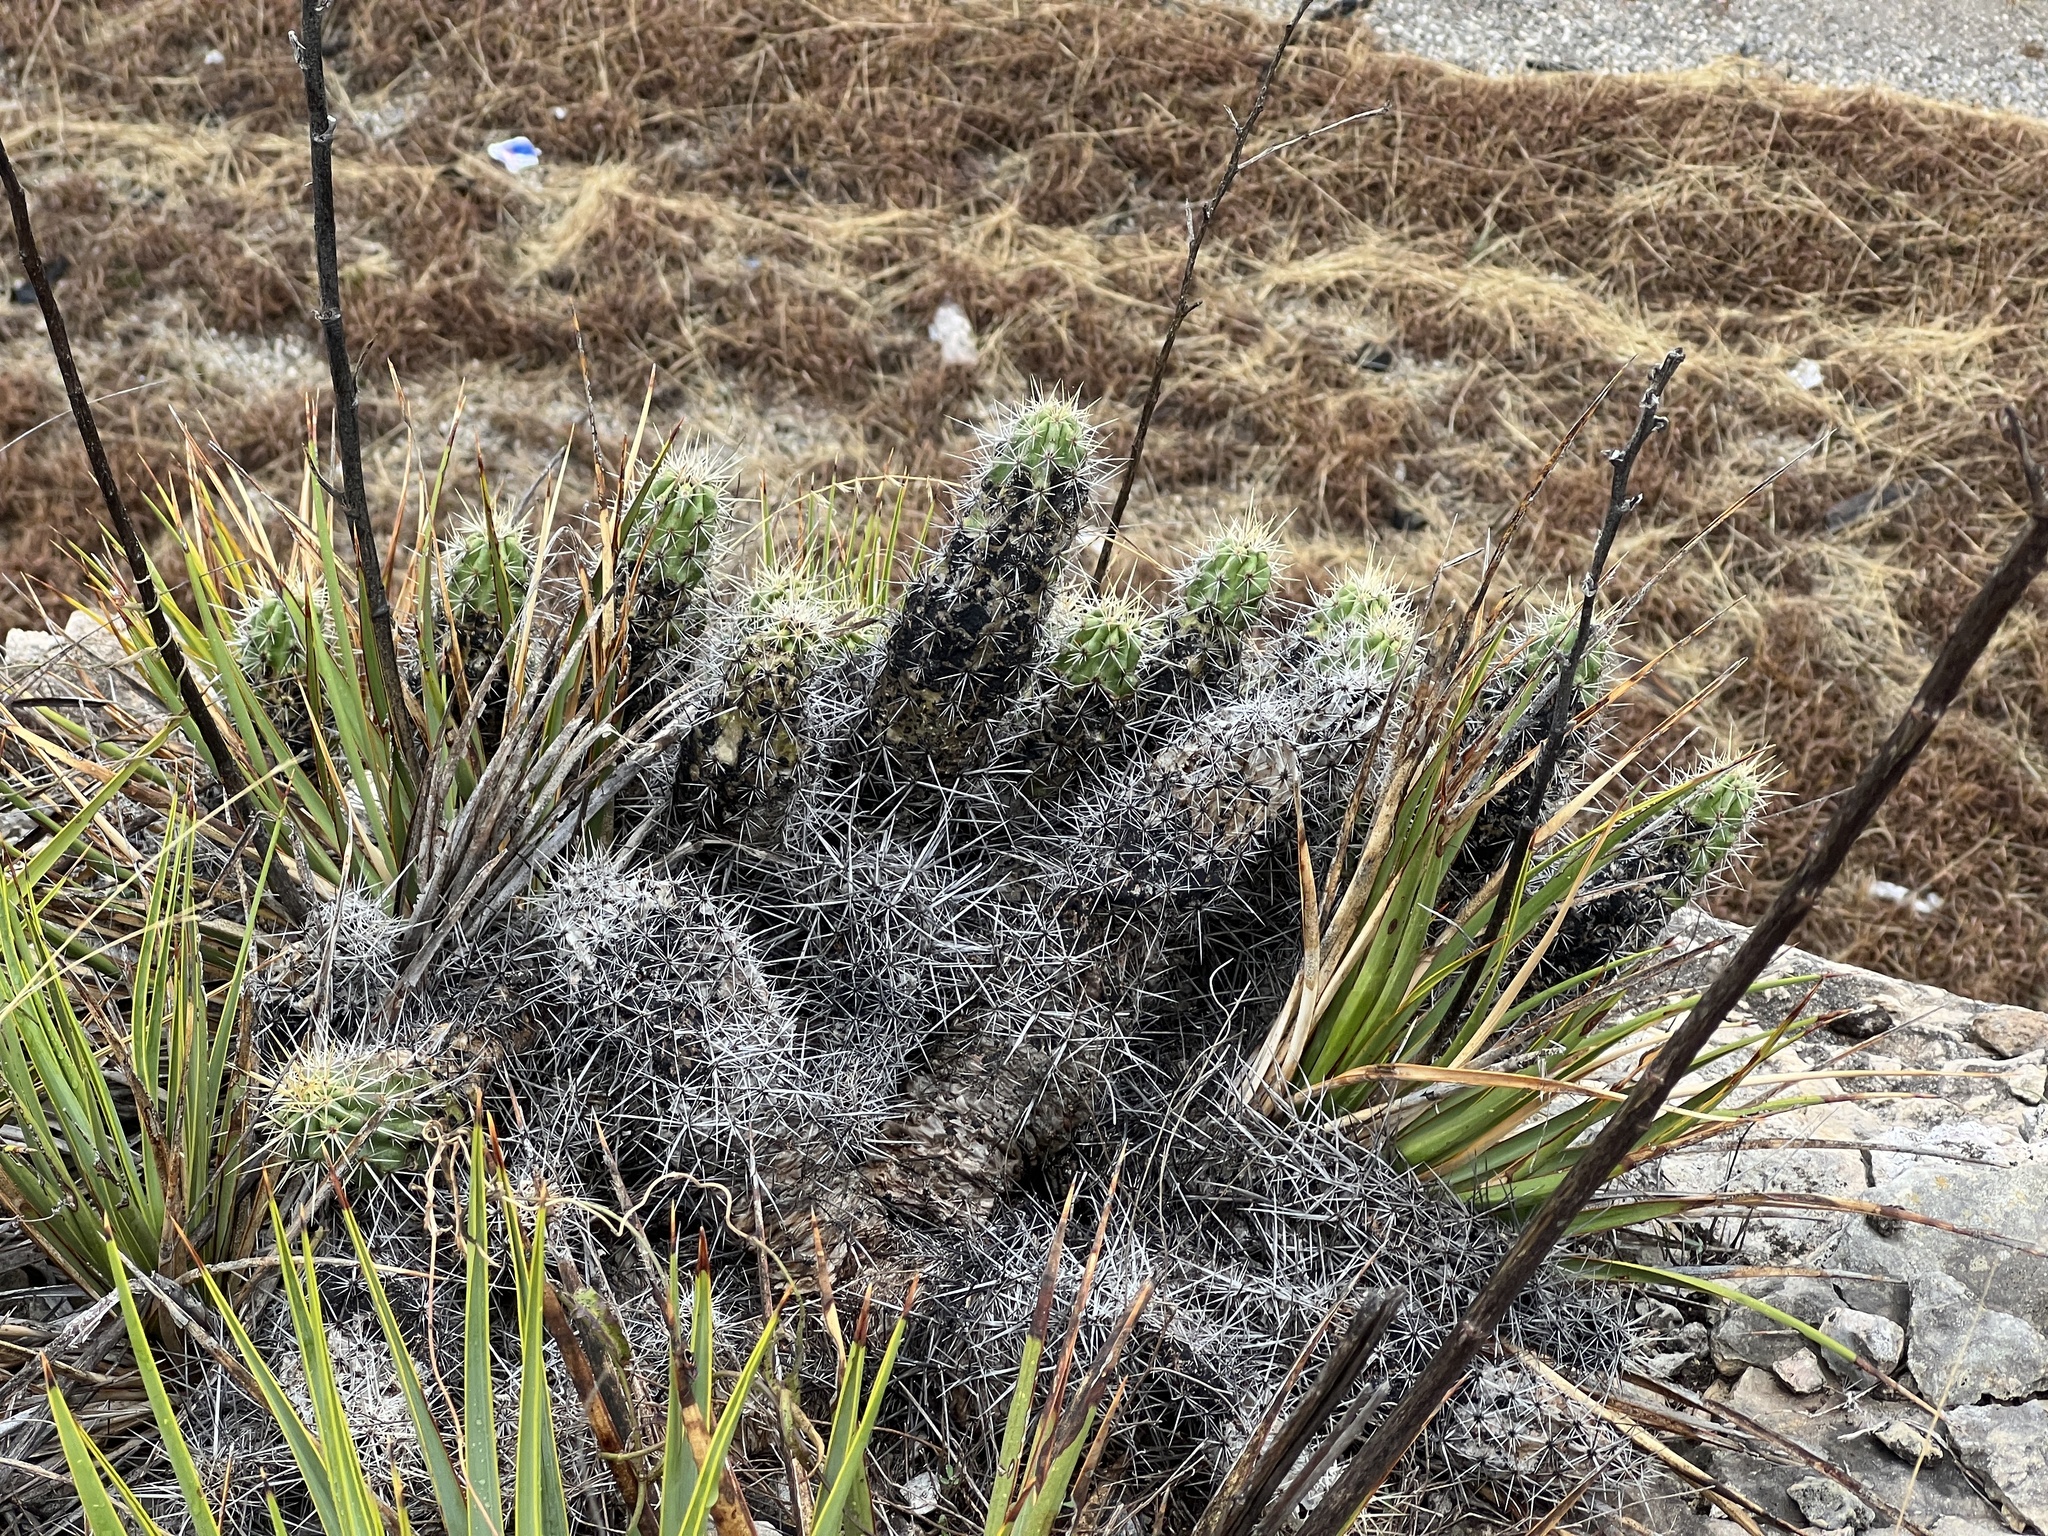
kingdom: Plantae
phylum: Tracheophyta
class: Magnoliopsida
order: Caryophyllales
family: Cactaceae
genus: Echinocereus
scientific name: Echinocereus enneacanthus
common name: Pitaya
